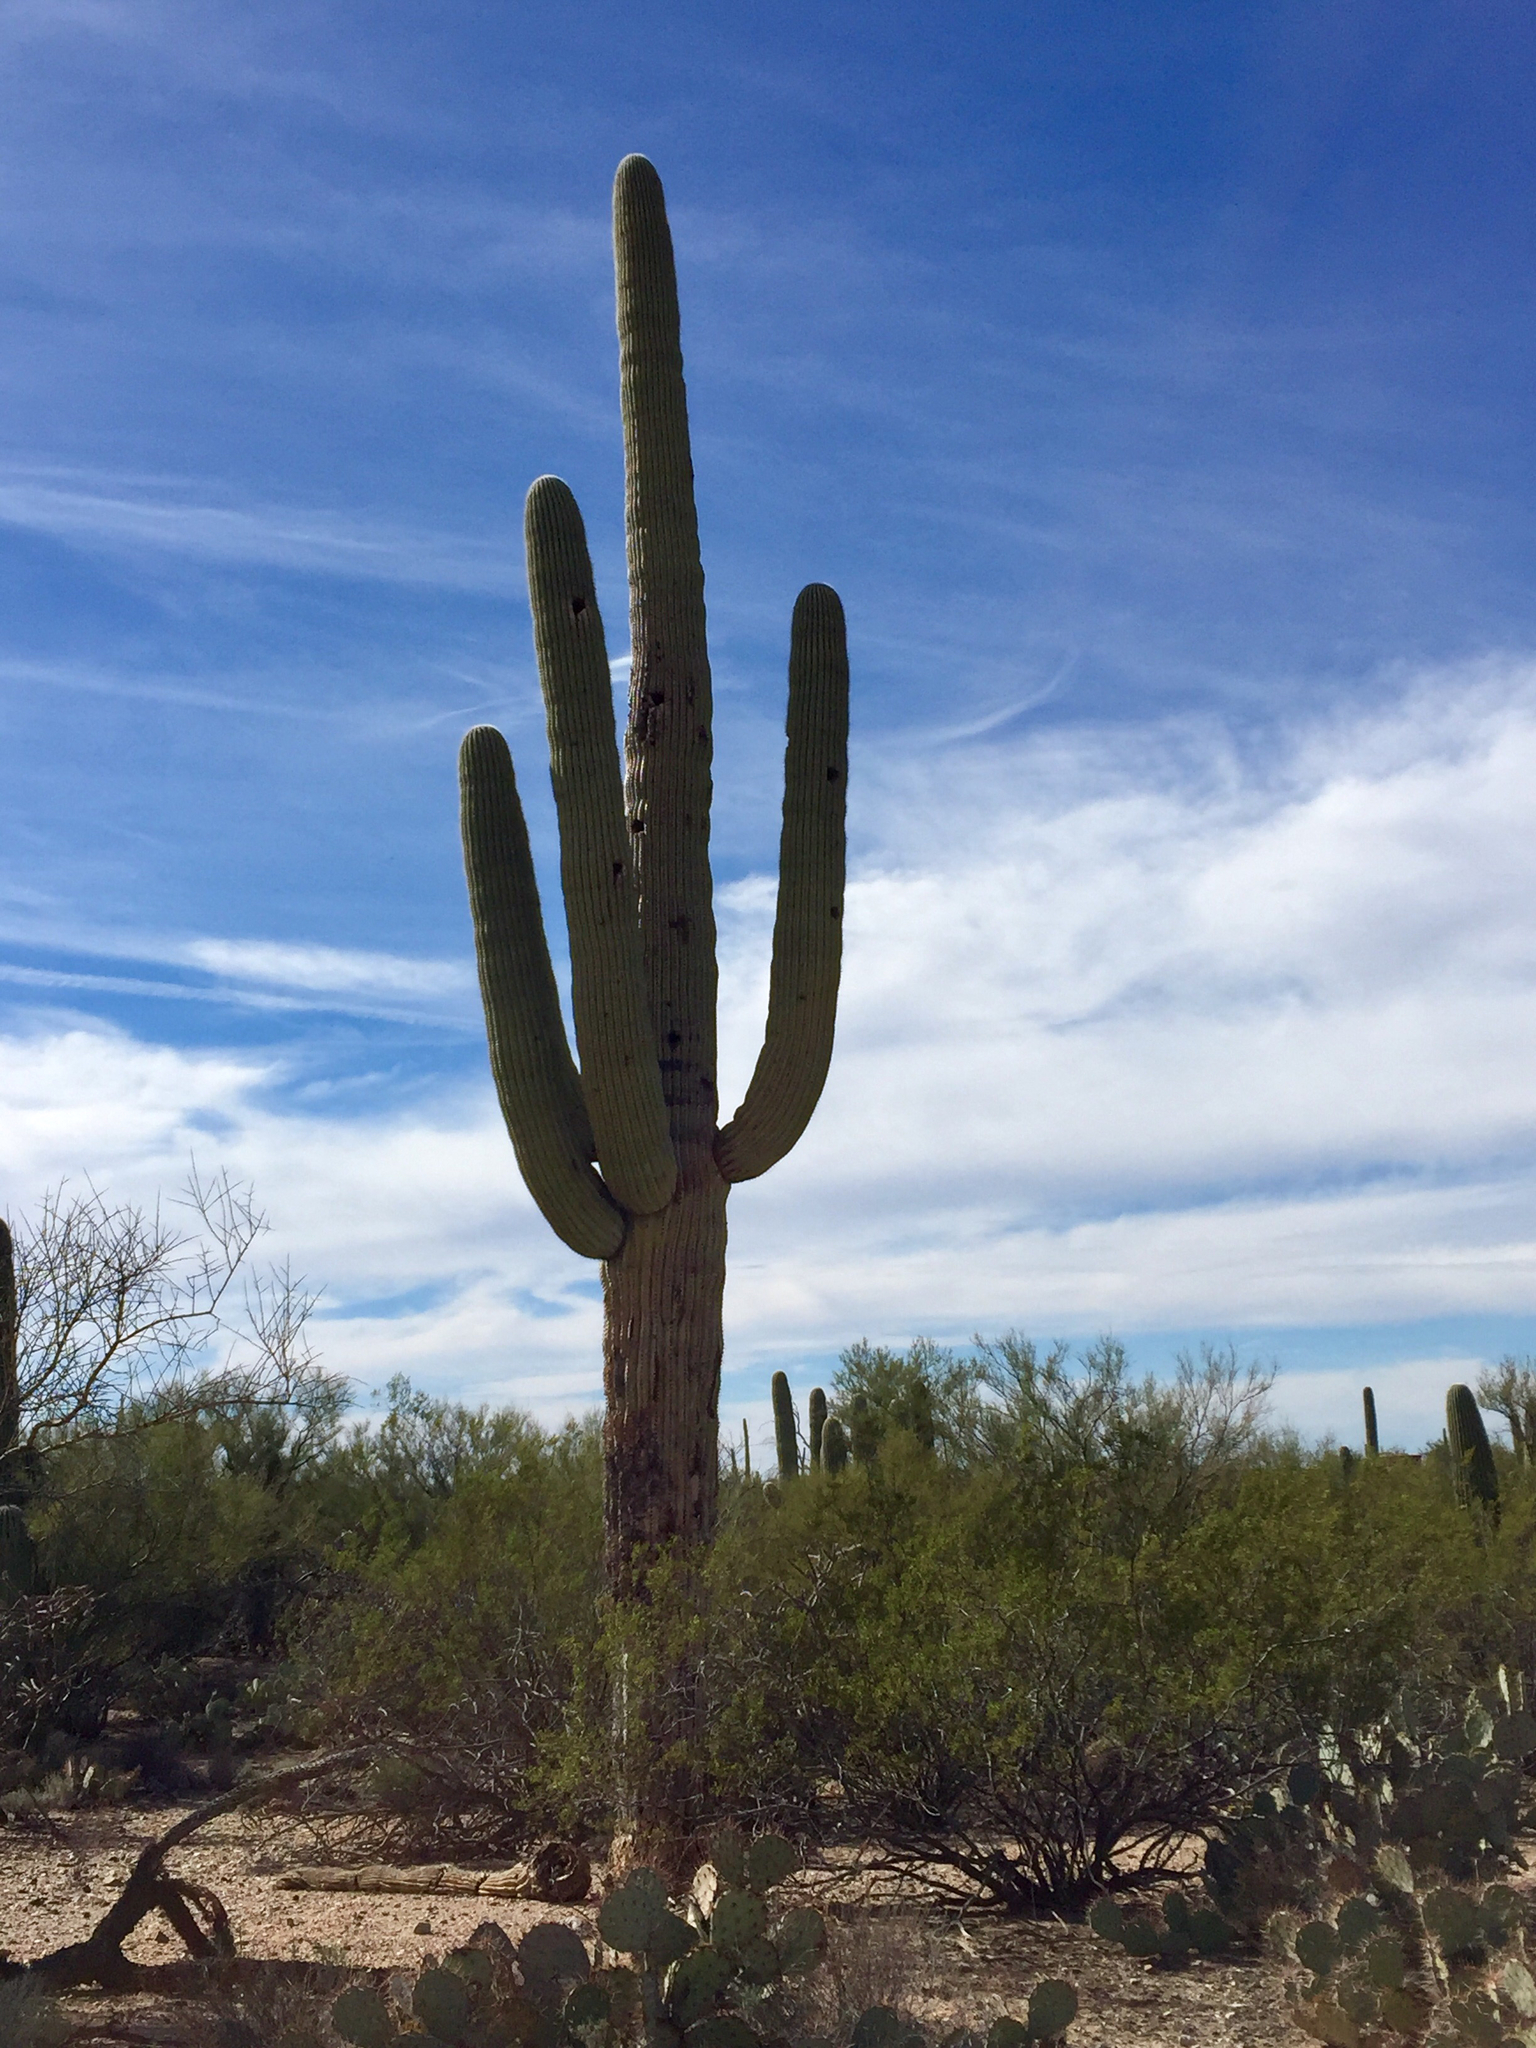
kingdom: Plantae
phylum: Tracheophyta
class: Magnoliopsida
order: Caryophyllales
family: Cactaceae
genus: Carnegiea
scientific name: Carnegiea gigantea
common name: Saguaro
